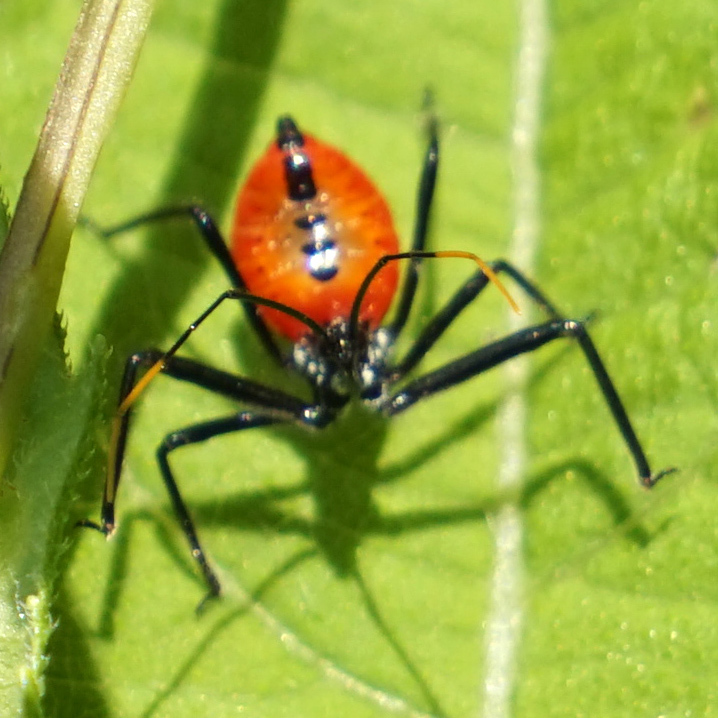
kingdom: Animalia
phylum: Arthropoda
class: Insecta
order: Hemiptera
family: Reduviidae
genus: Arilus
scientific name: Arilus cristatus
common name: North american wheel bug
